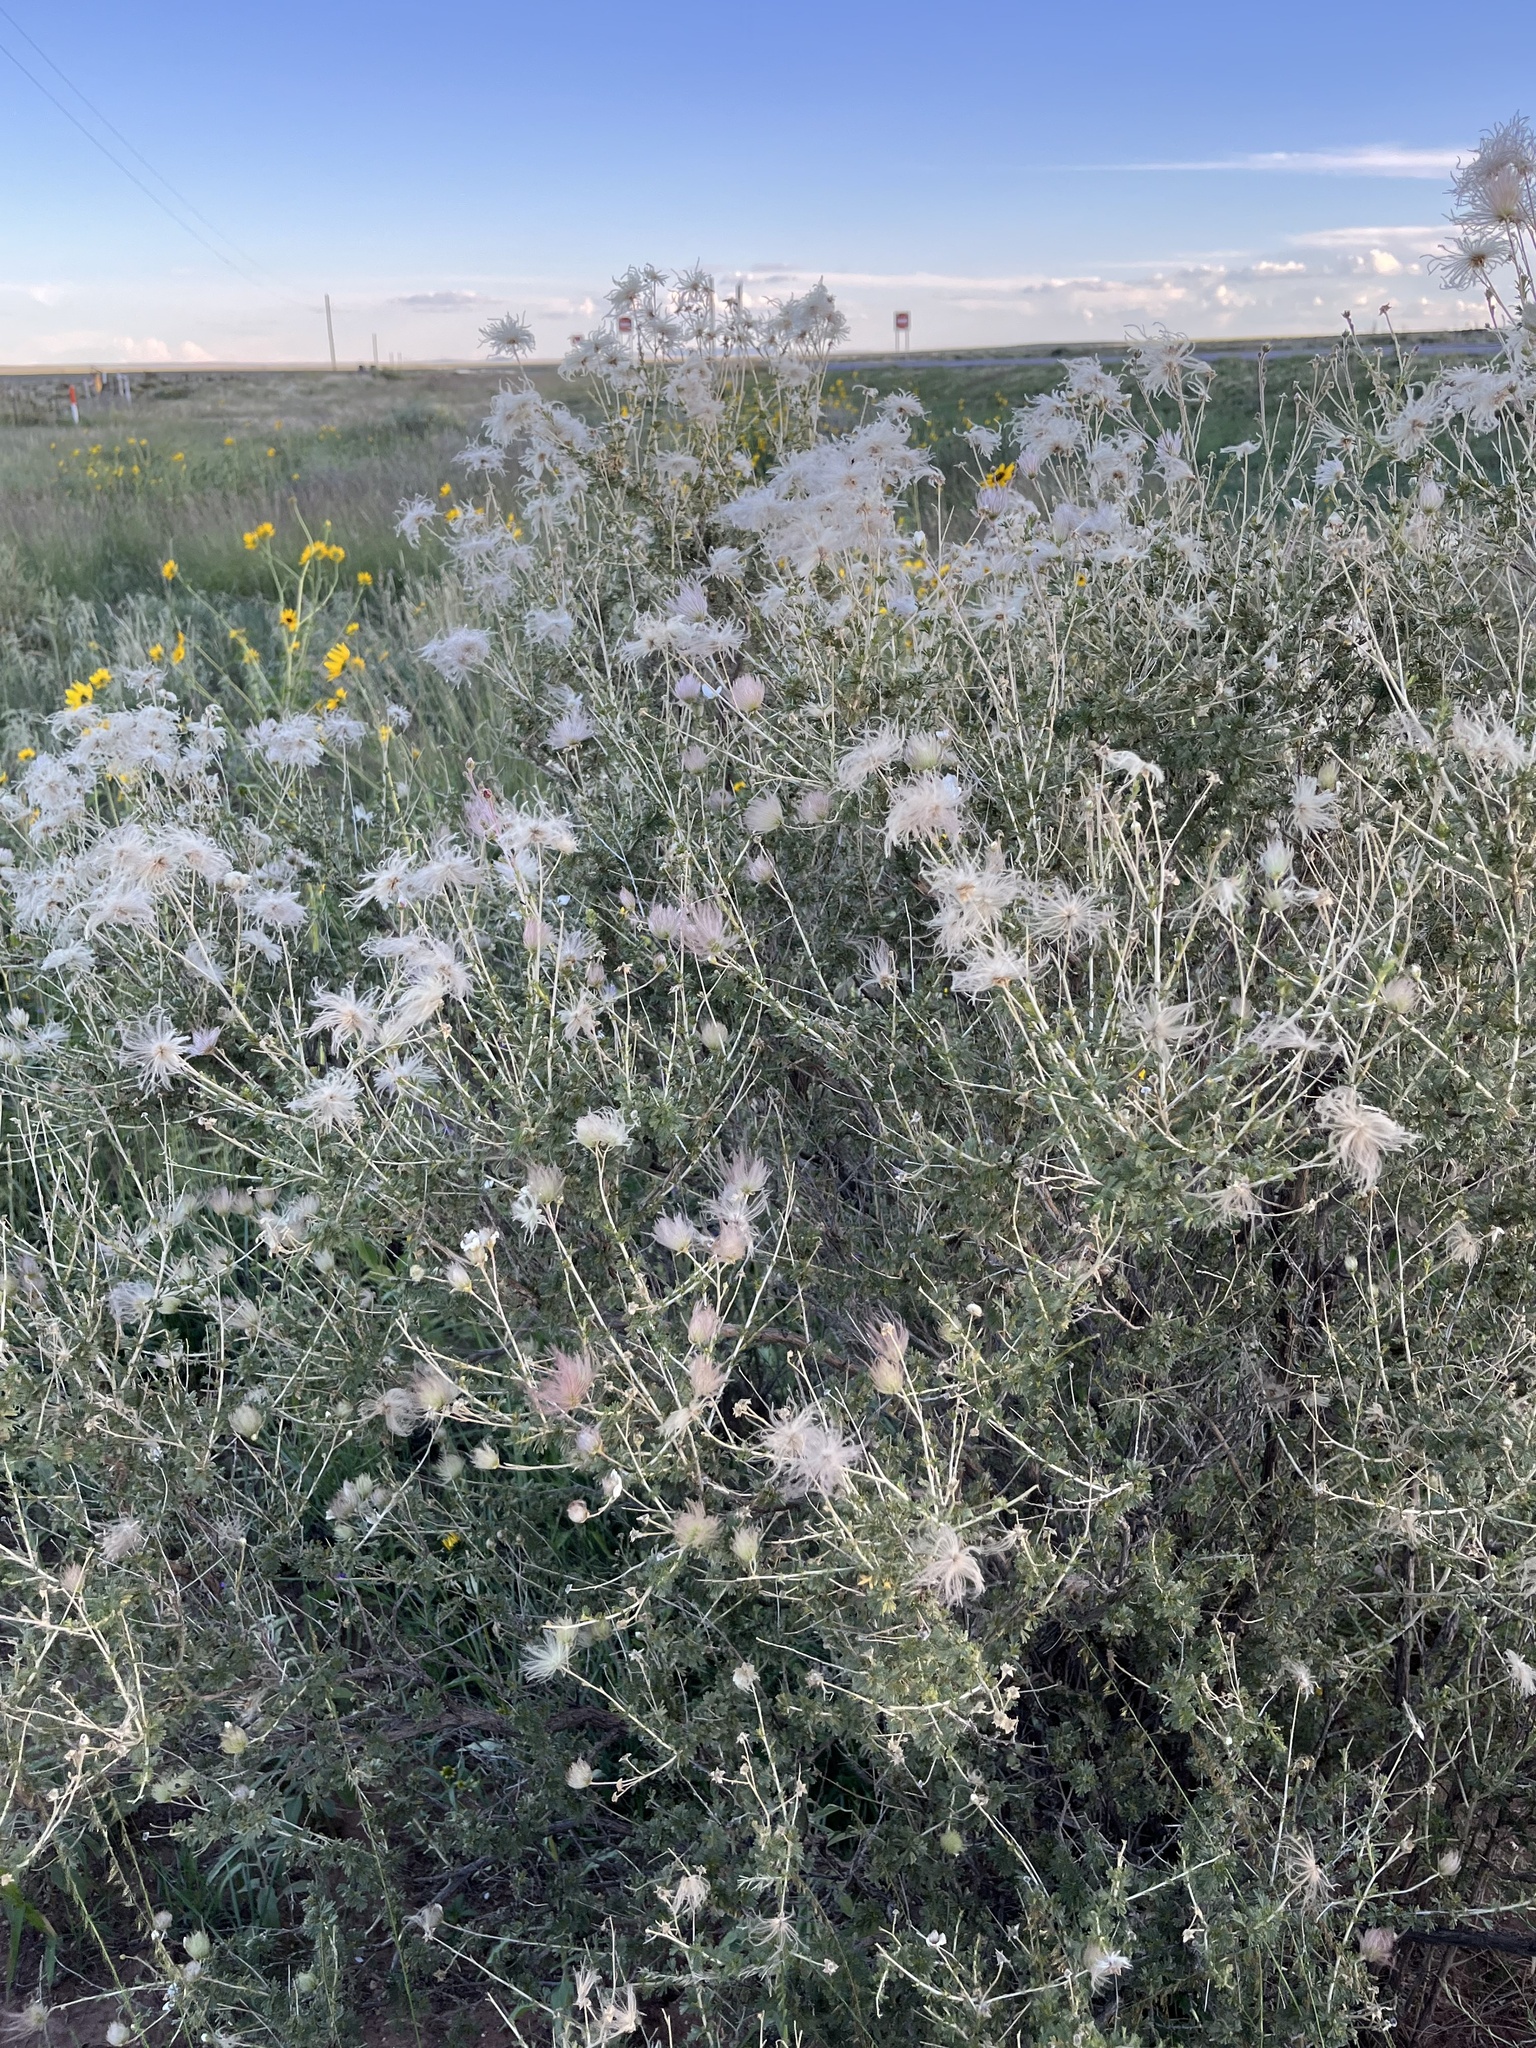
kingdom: Plantae
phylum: Tracheophyta
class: Magnoliopsida
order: Rosales
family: Rosaceae
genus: Fallugia
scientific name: Fallugia paradoxa
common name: Apache-plume
